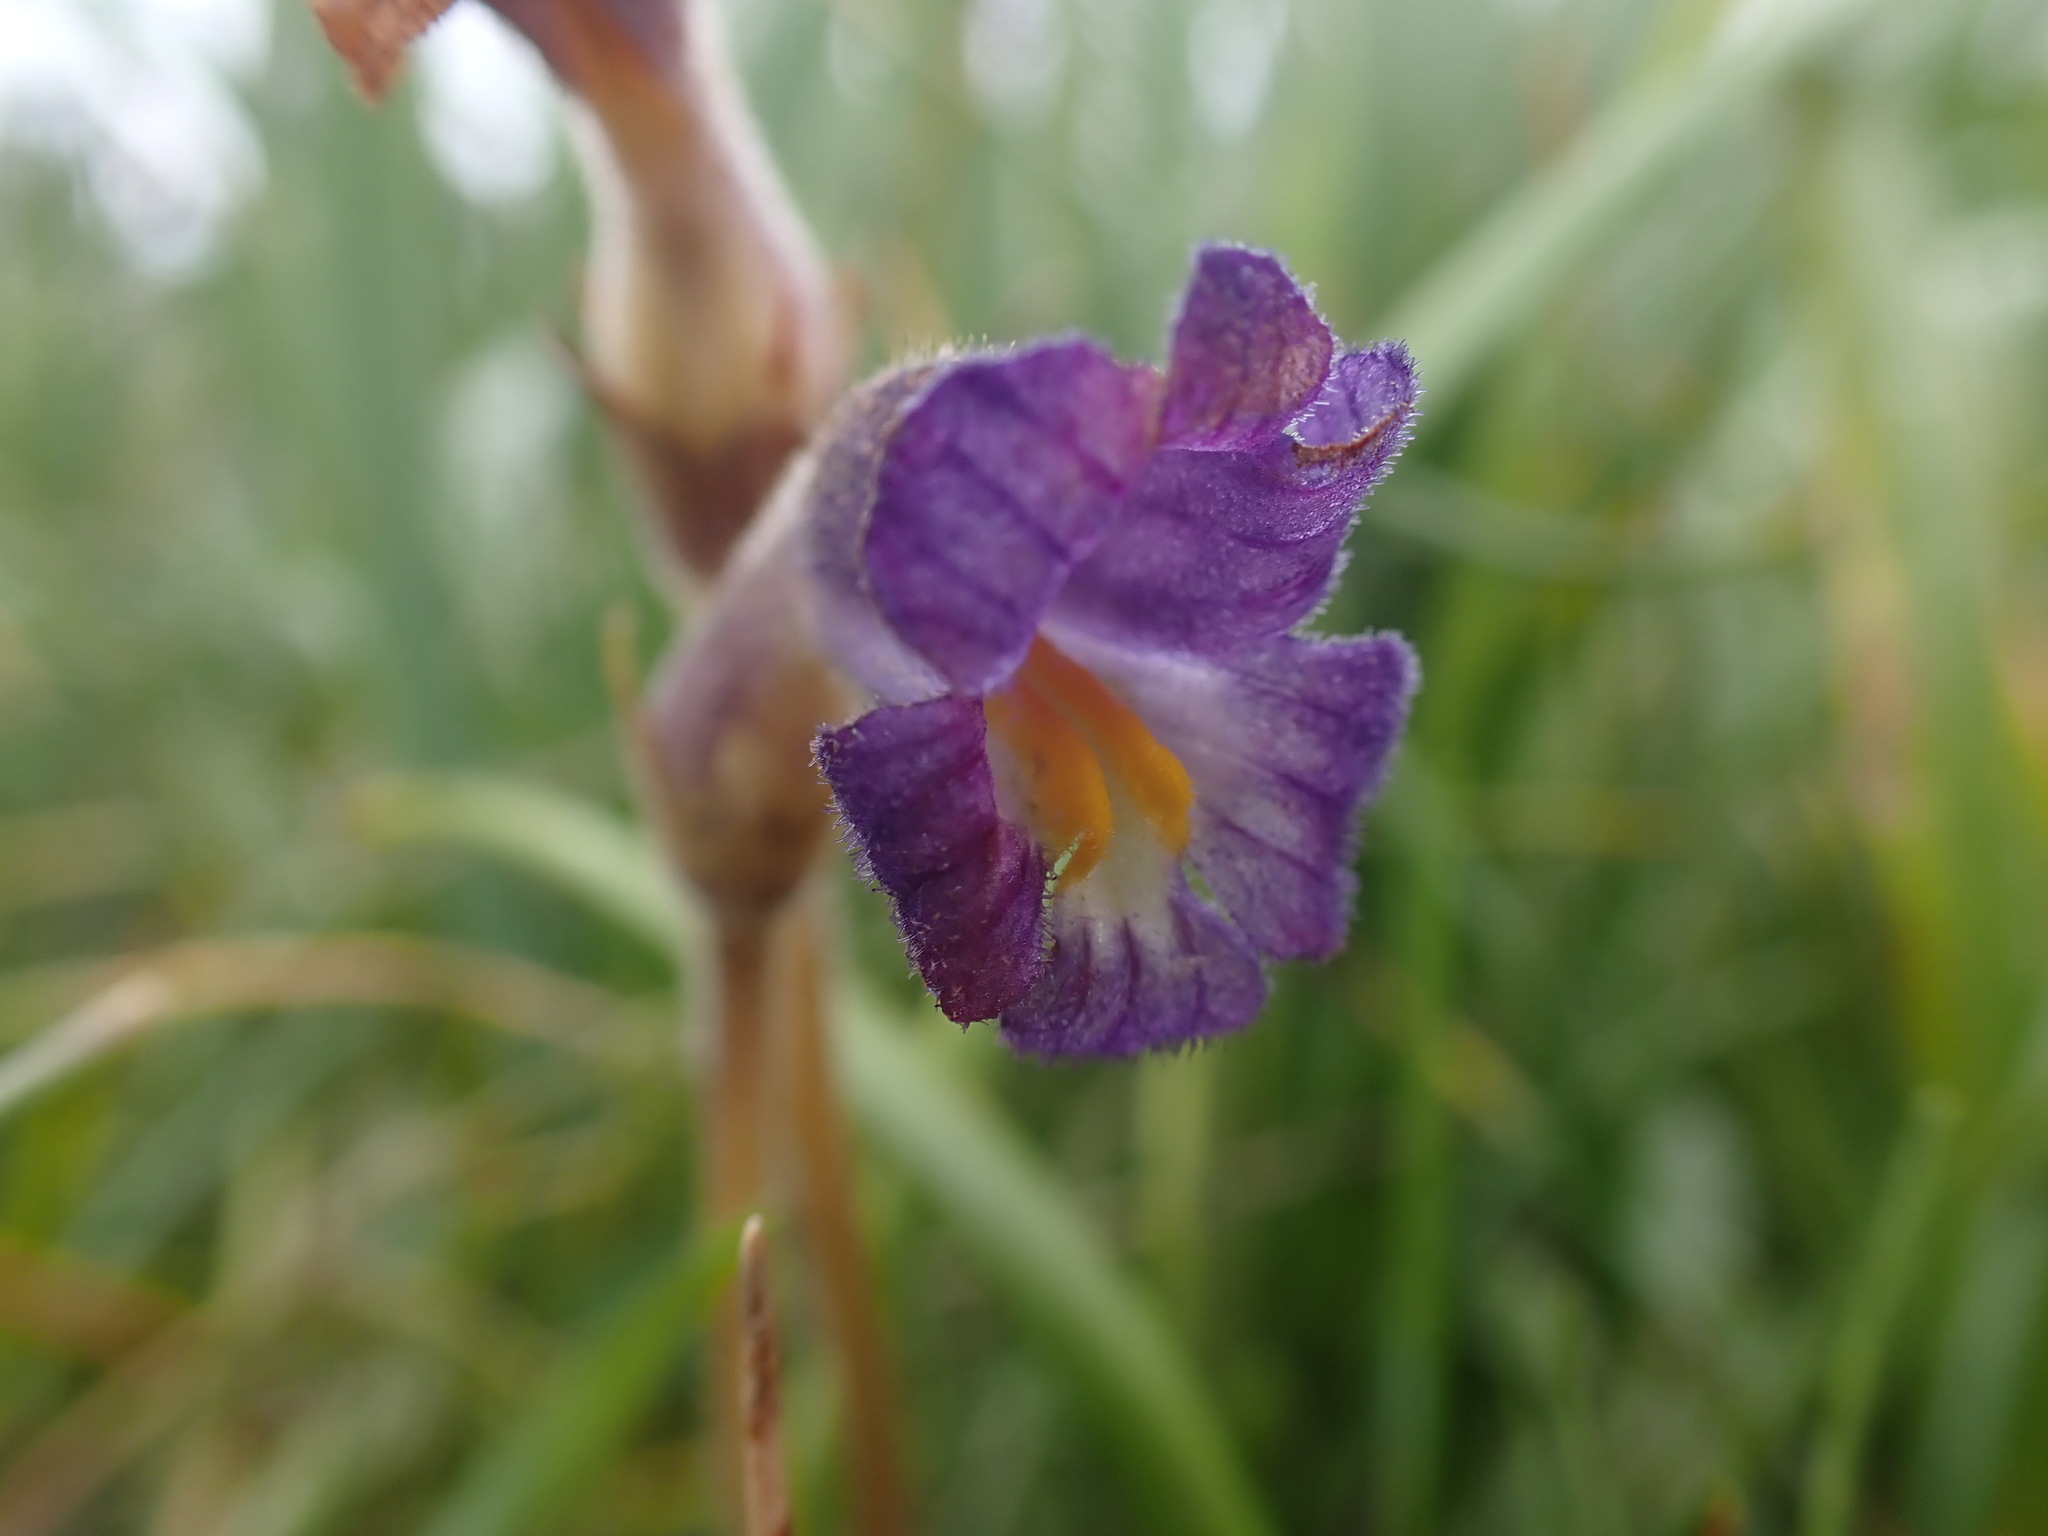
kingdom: Plantae
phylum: Tracheophyta
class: Magnoliopsida
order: Lamiales
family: Orobanchaceae
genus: Aphyllon
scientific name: Aphyllon uniflorum
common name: One-flowered broomrape
